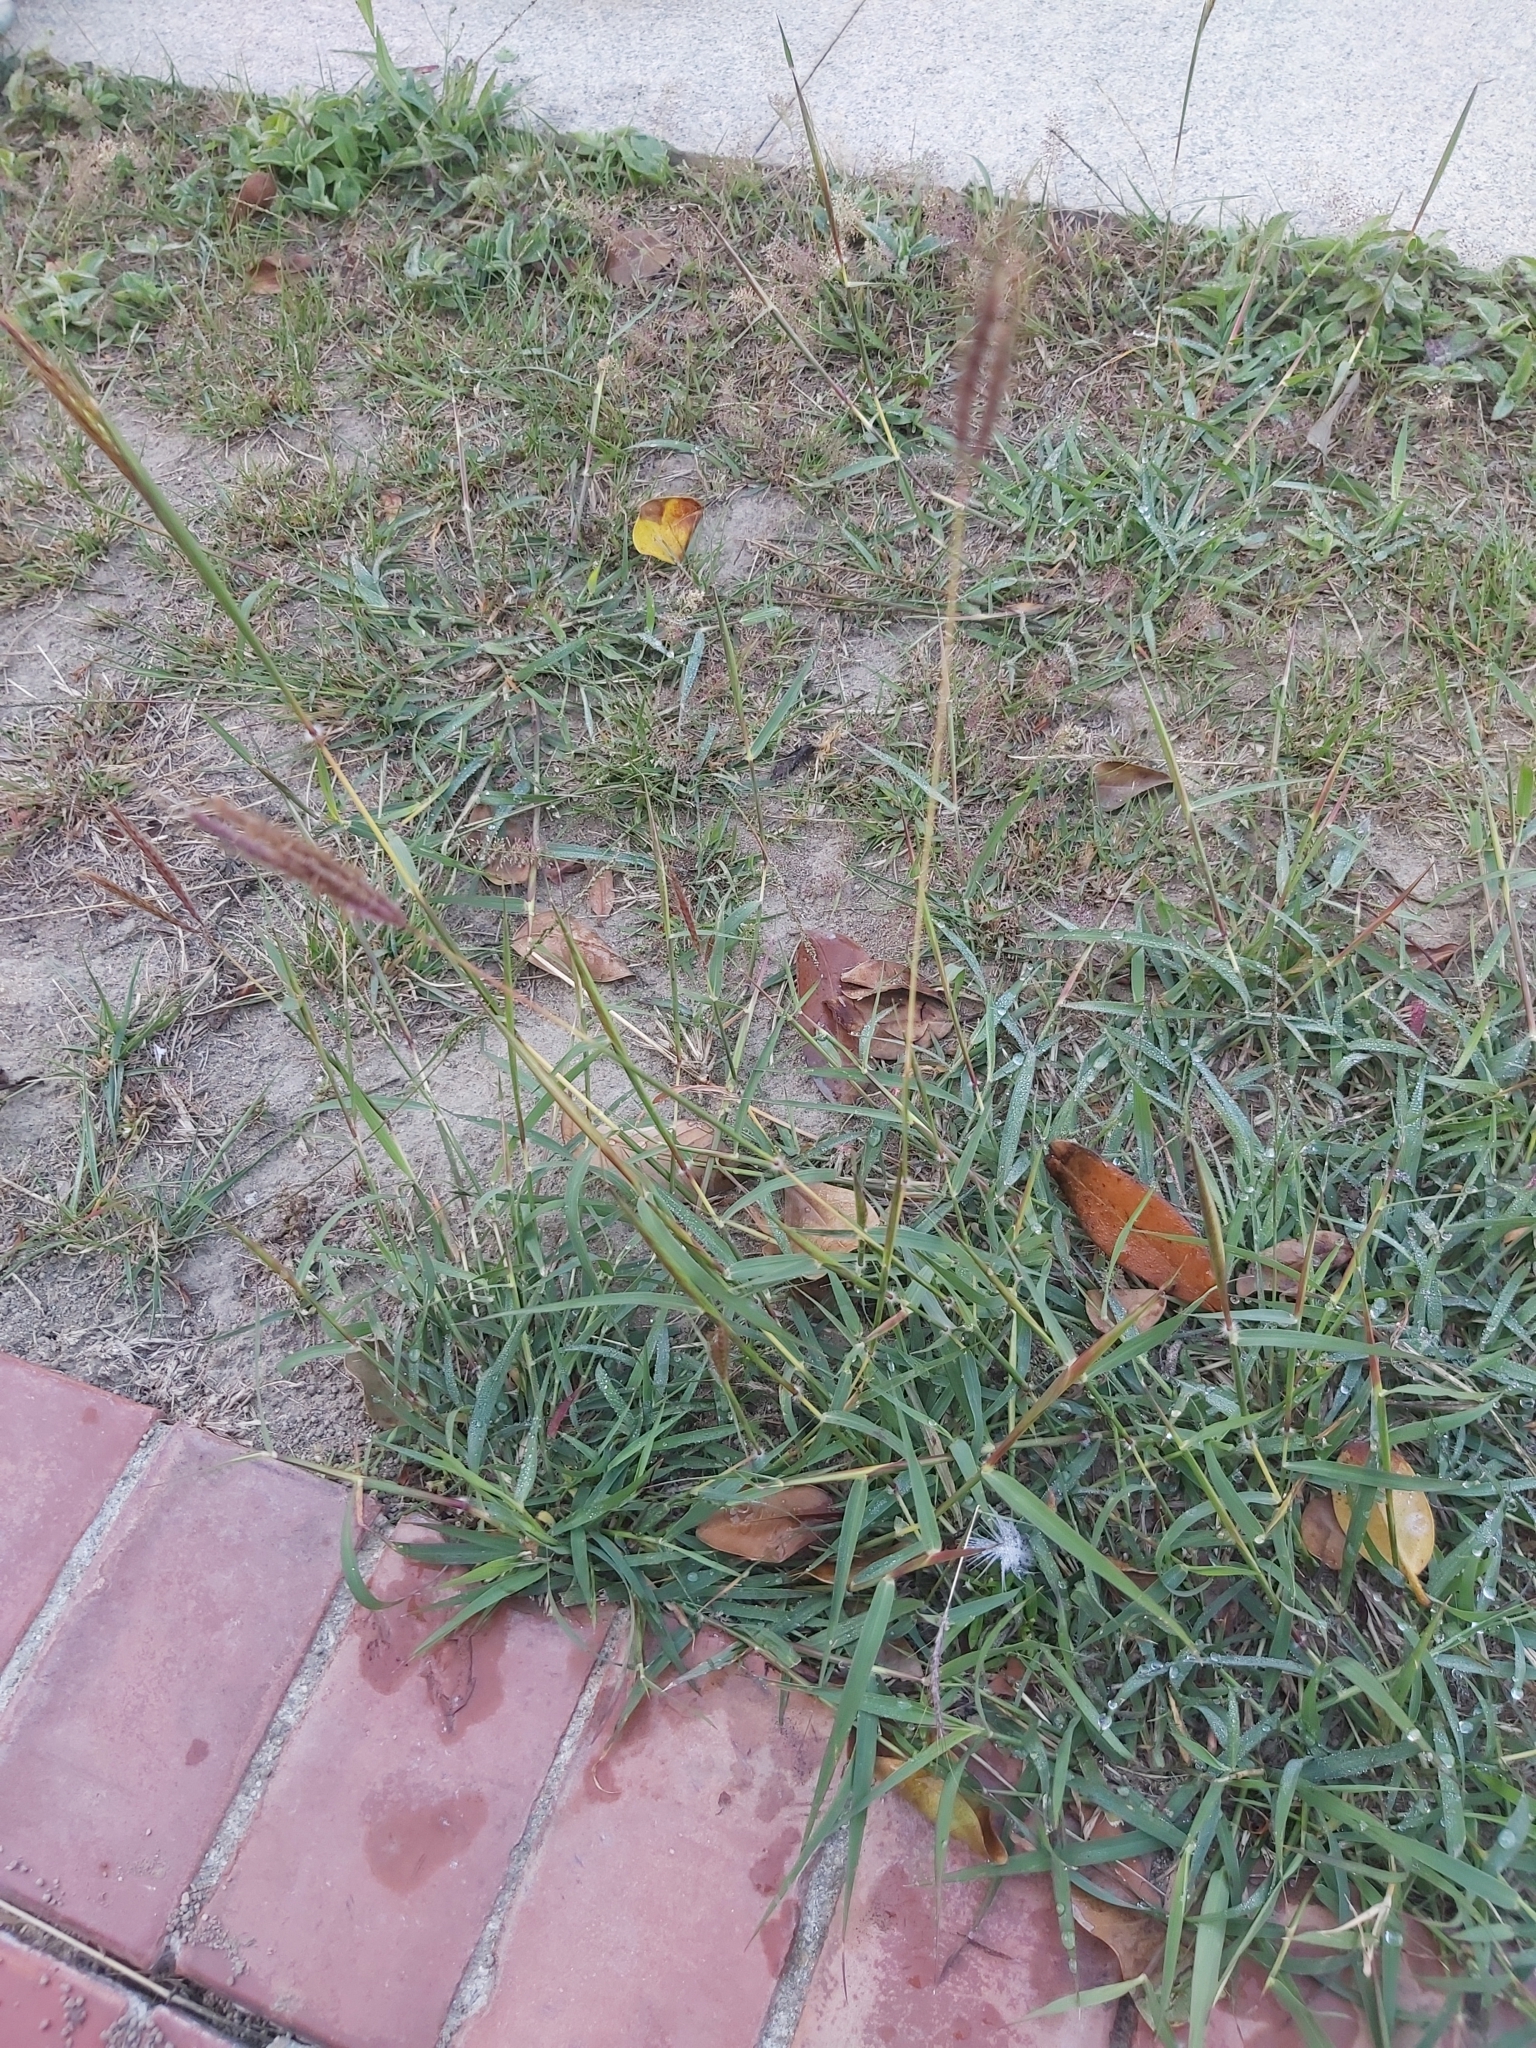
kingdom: Plantae
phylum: Tracheophyta
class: Liliopsida
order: Poales
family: Poaceae
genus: Dichanthium
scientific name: Dichanthium annulatum
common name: Kleberg's bluestem
